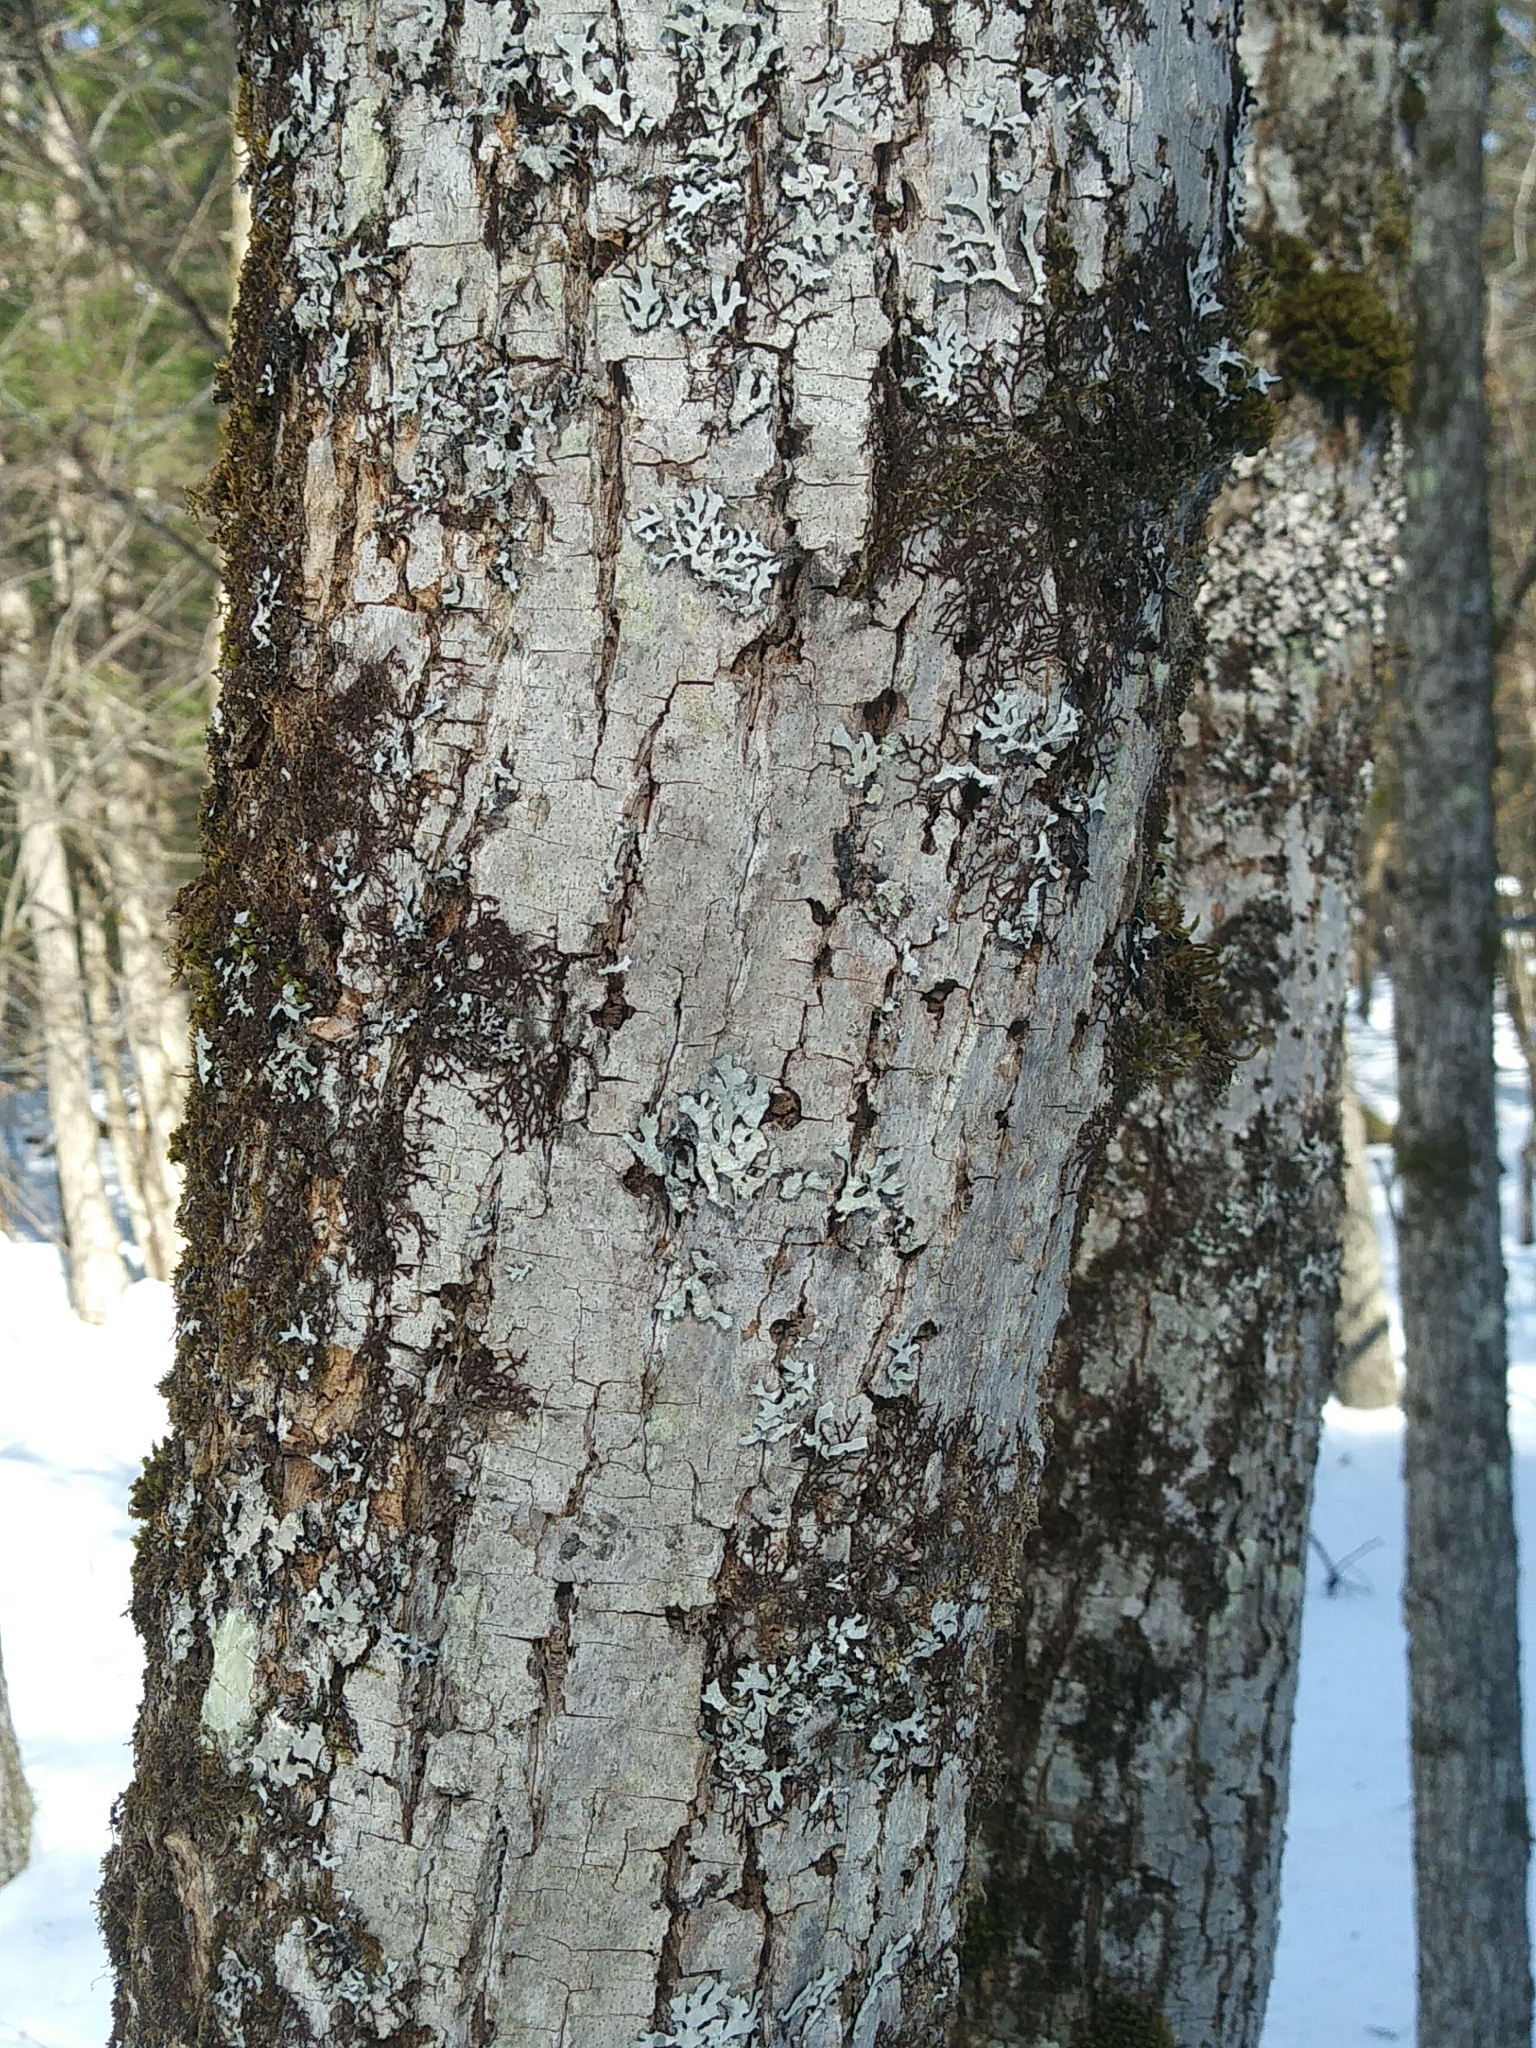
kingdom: Plantae
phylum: Tracheophyta
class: Magnoliopsida
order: Malvales
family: Malvaceae
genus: Tilia
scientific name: Tilia americana
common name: Basswood
